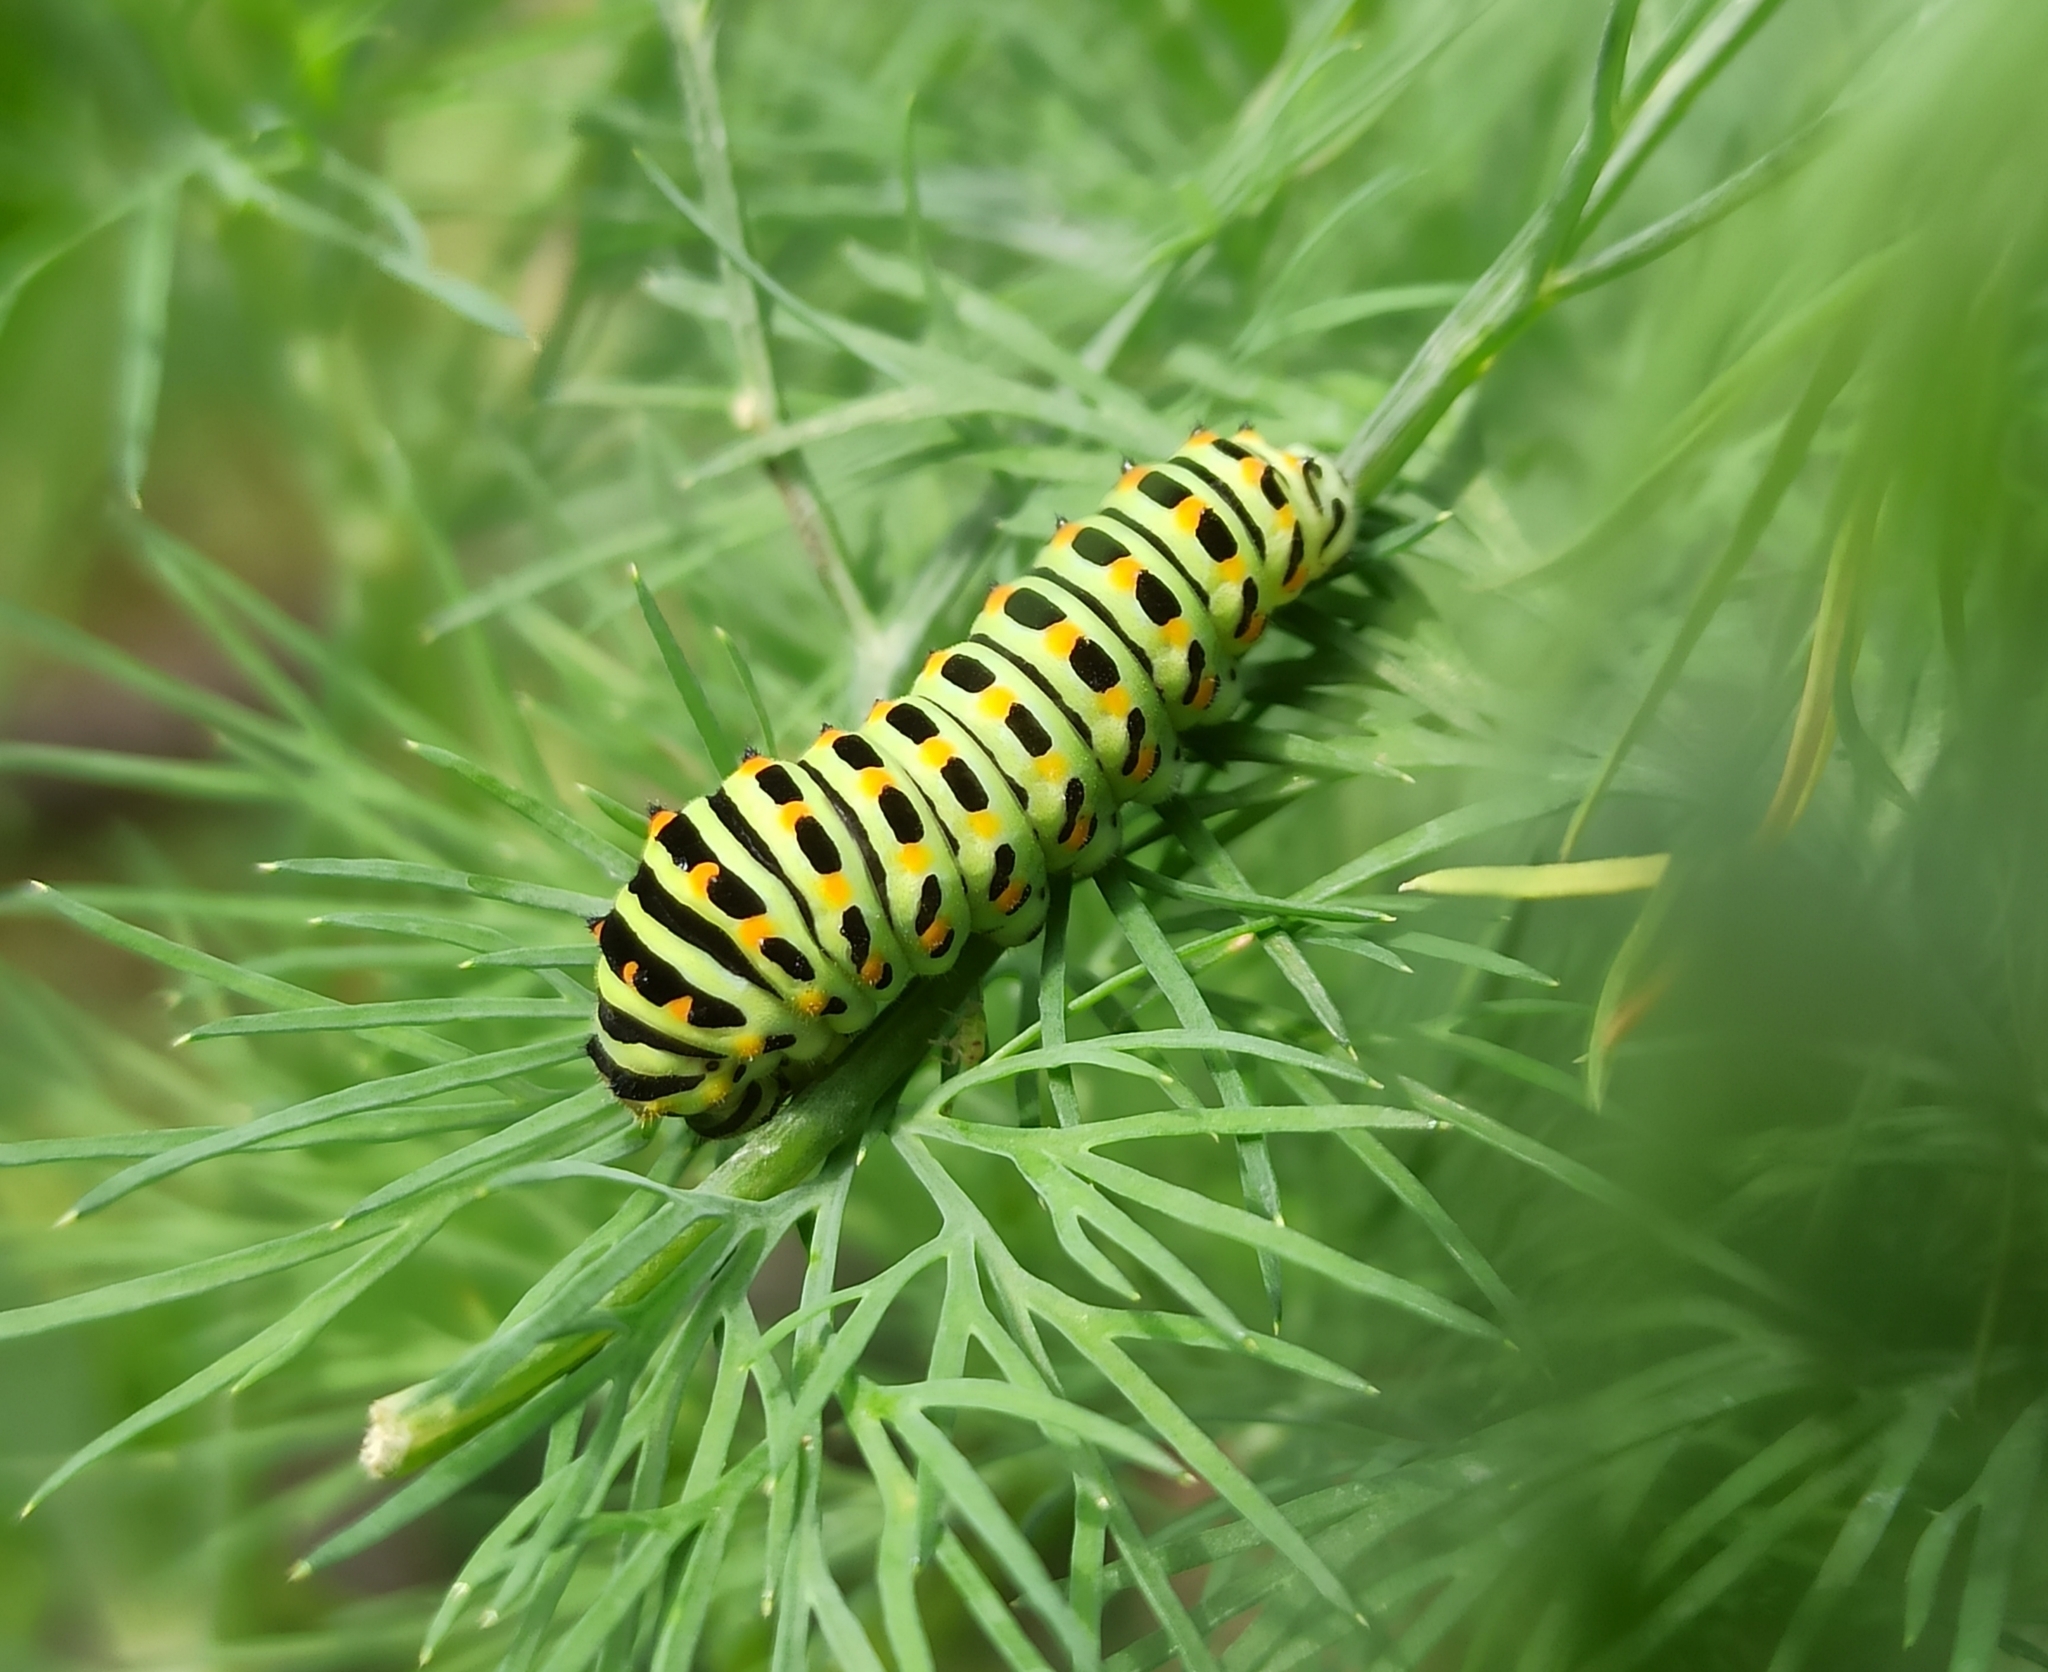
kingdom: Animalia
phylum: Arthropoda
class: Insecta
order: Lepidoptera
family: Papilionidae
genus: Papilio
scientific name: Papilio machaon
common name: Swallowtail
